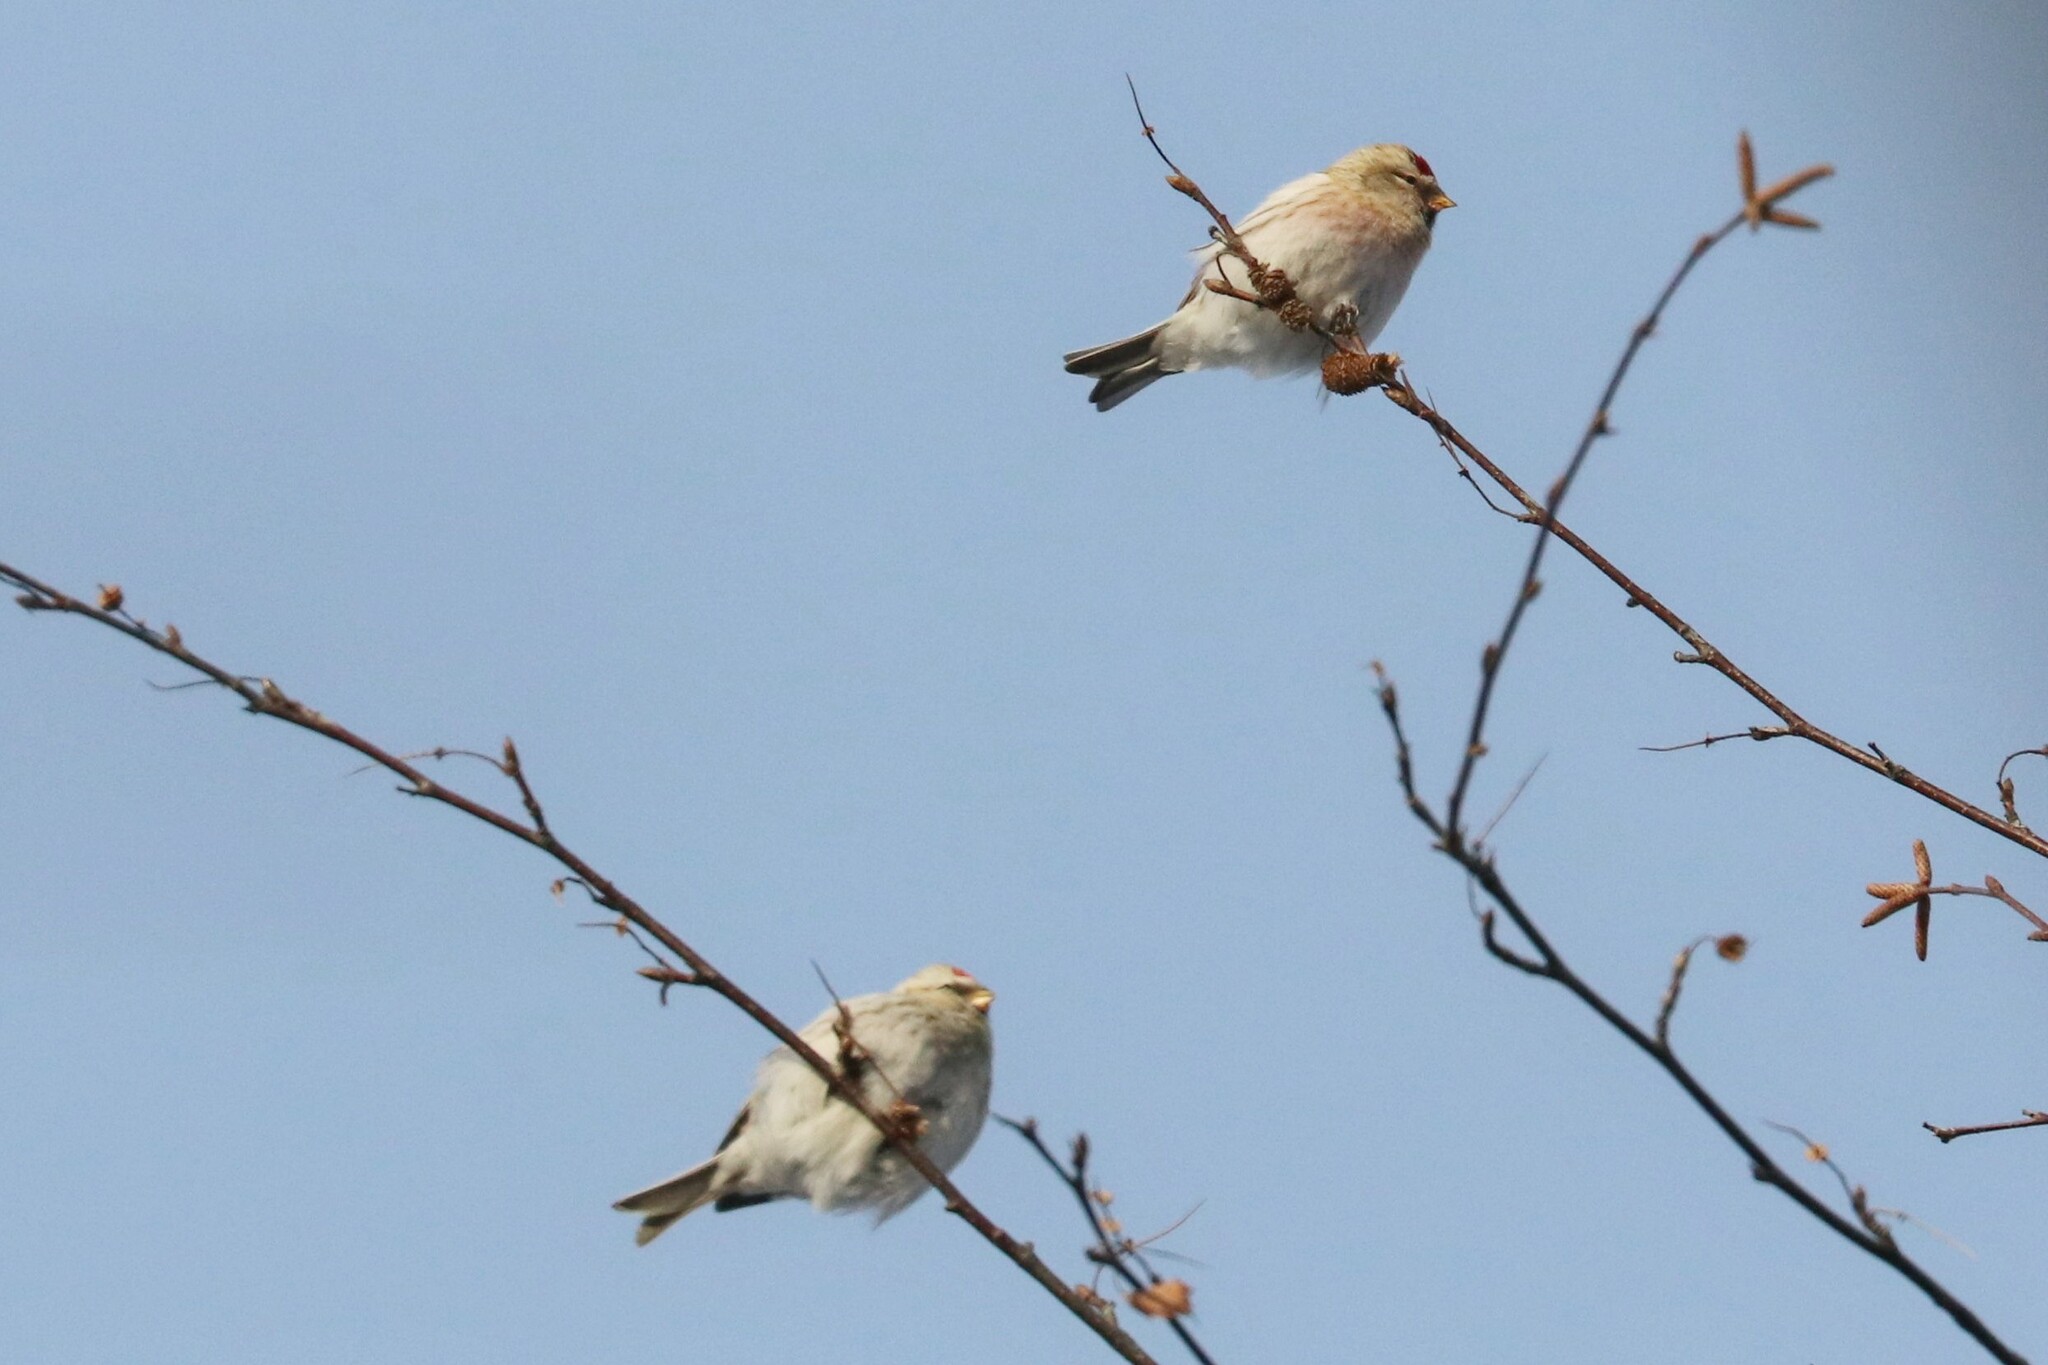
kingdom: Animalia
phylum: Chordata
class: Aves
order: Passeriformes
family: Fringillidae
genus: Acanthis
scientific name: Acanthis hornemanni
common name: Arctic redpoll
